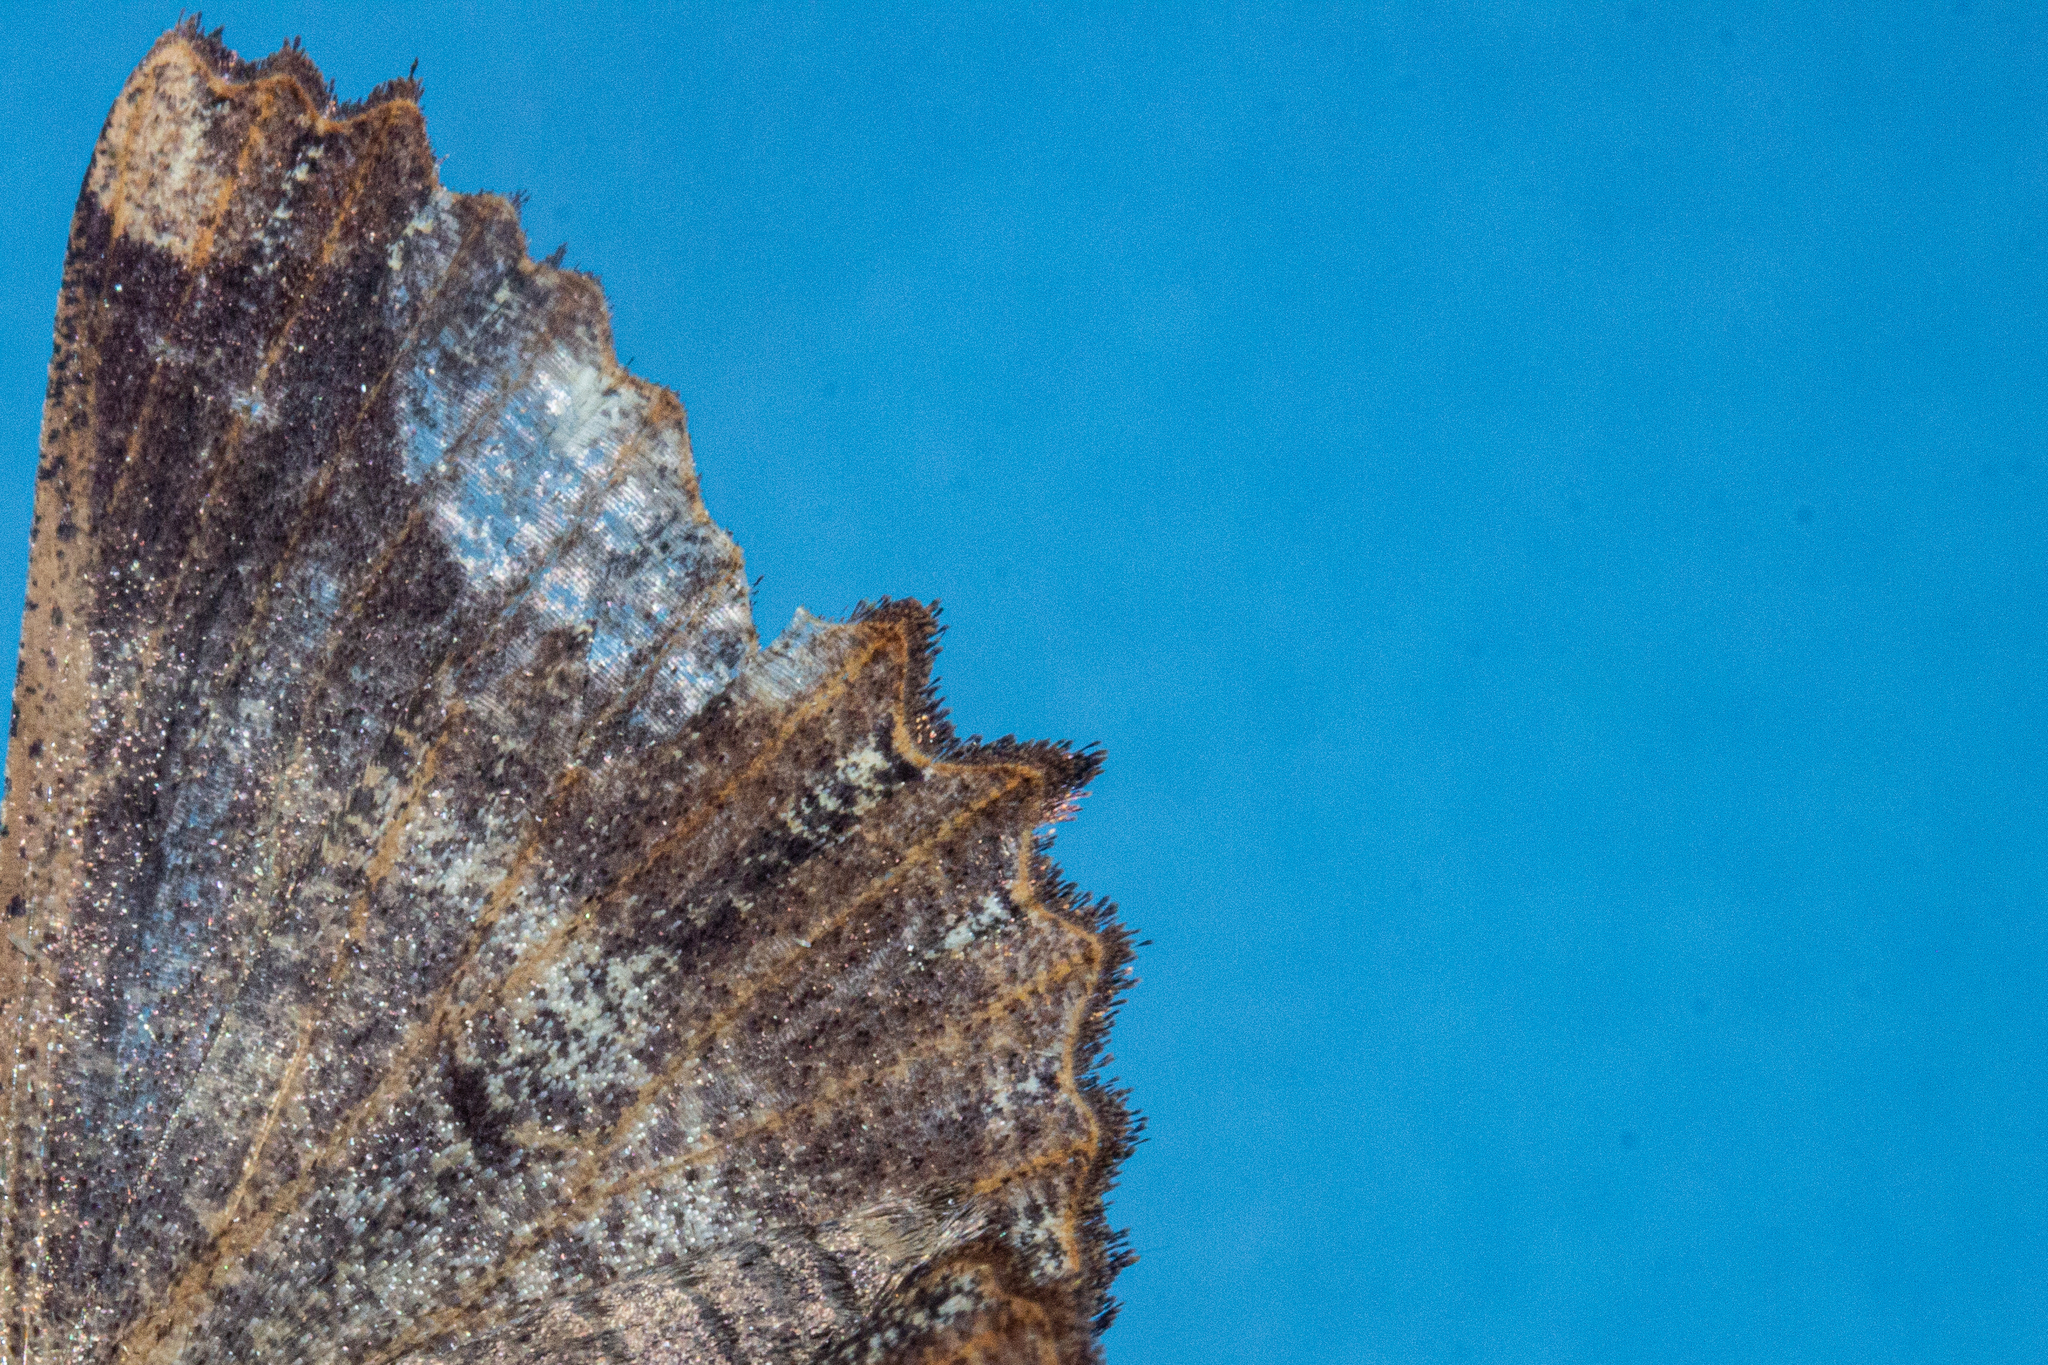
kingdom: Animalia
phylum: Arthropoda
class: Insecta
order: Lepidoptera
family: Geometridae
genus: Gellonia
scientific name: Gellonia dejectaria
